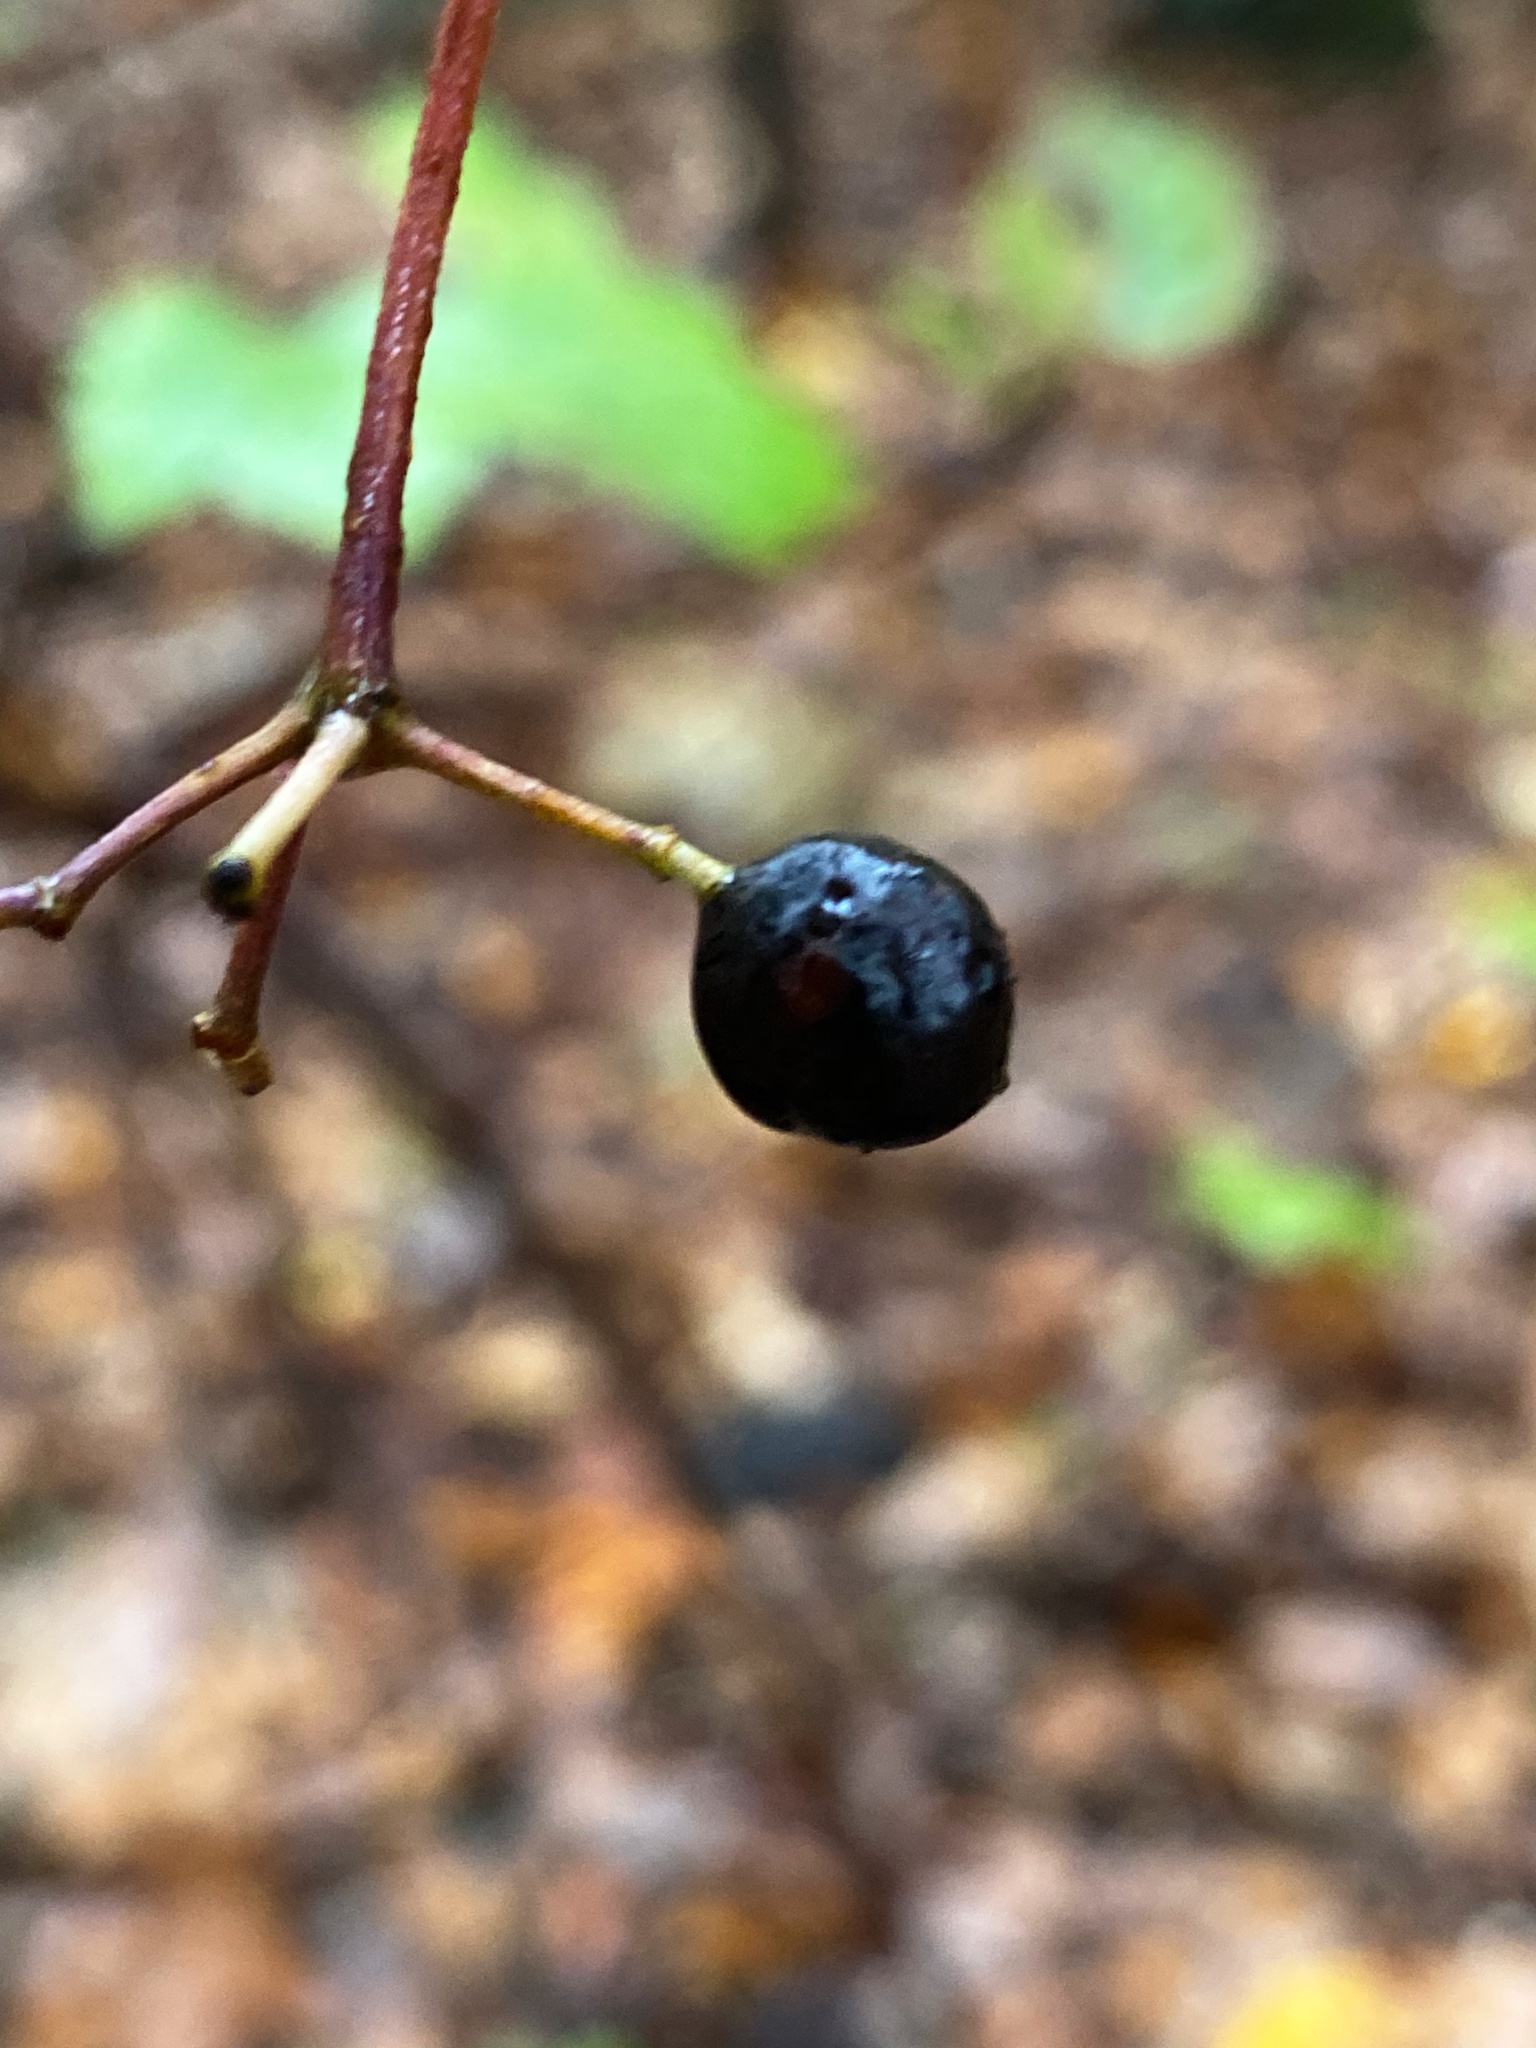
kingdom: Plantae
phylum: Tracheophyta
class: Magnoliopsida
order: Dipsacales
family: Viburnaceae
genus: Viburnum
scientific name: Viburnum acerifolium
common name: Dockmackie
